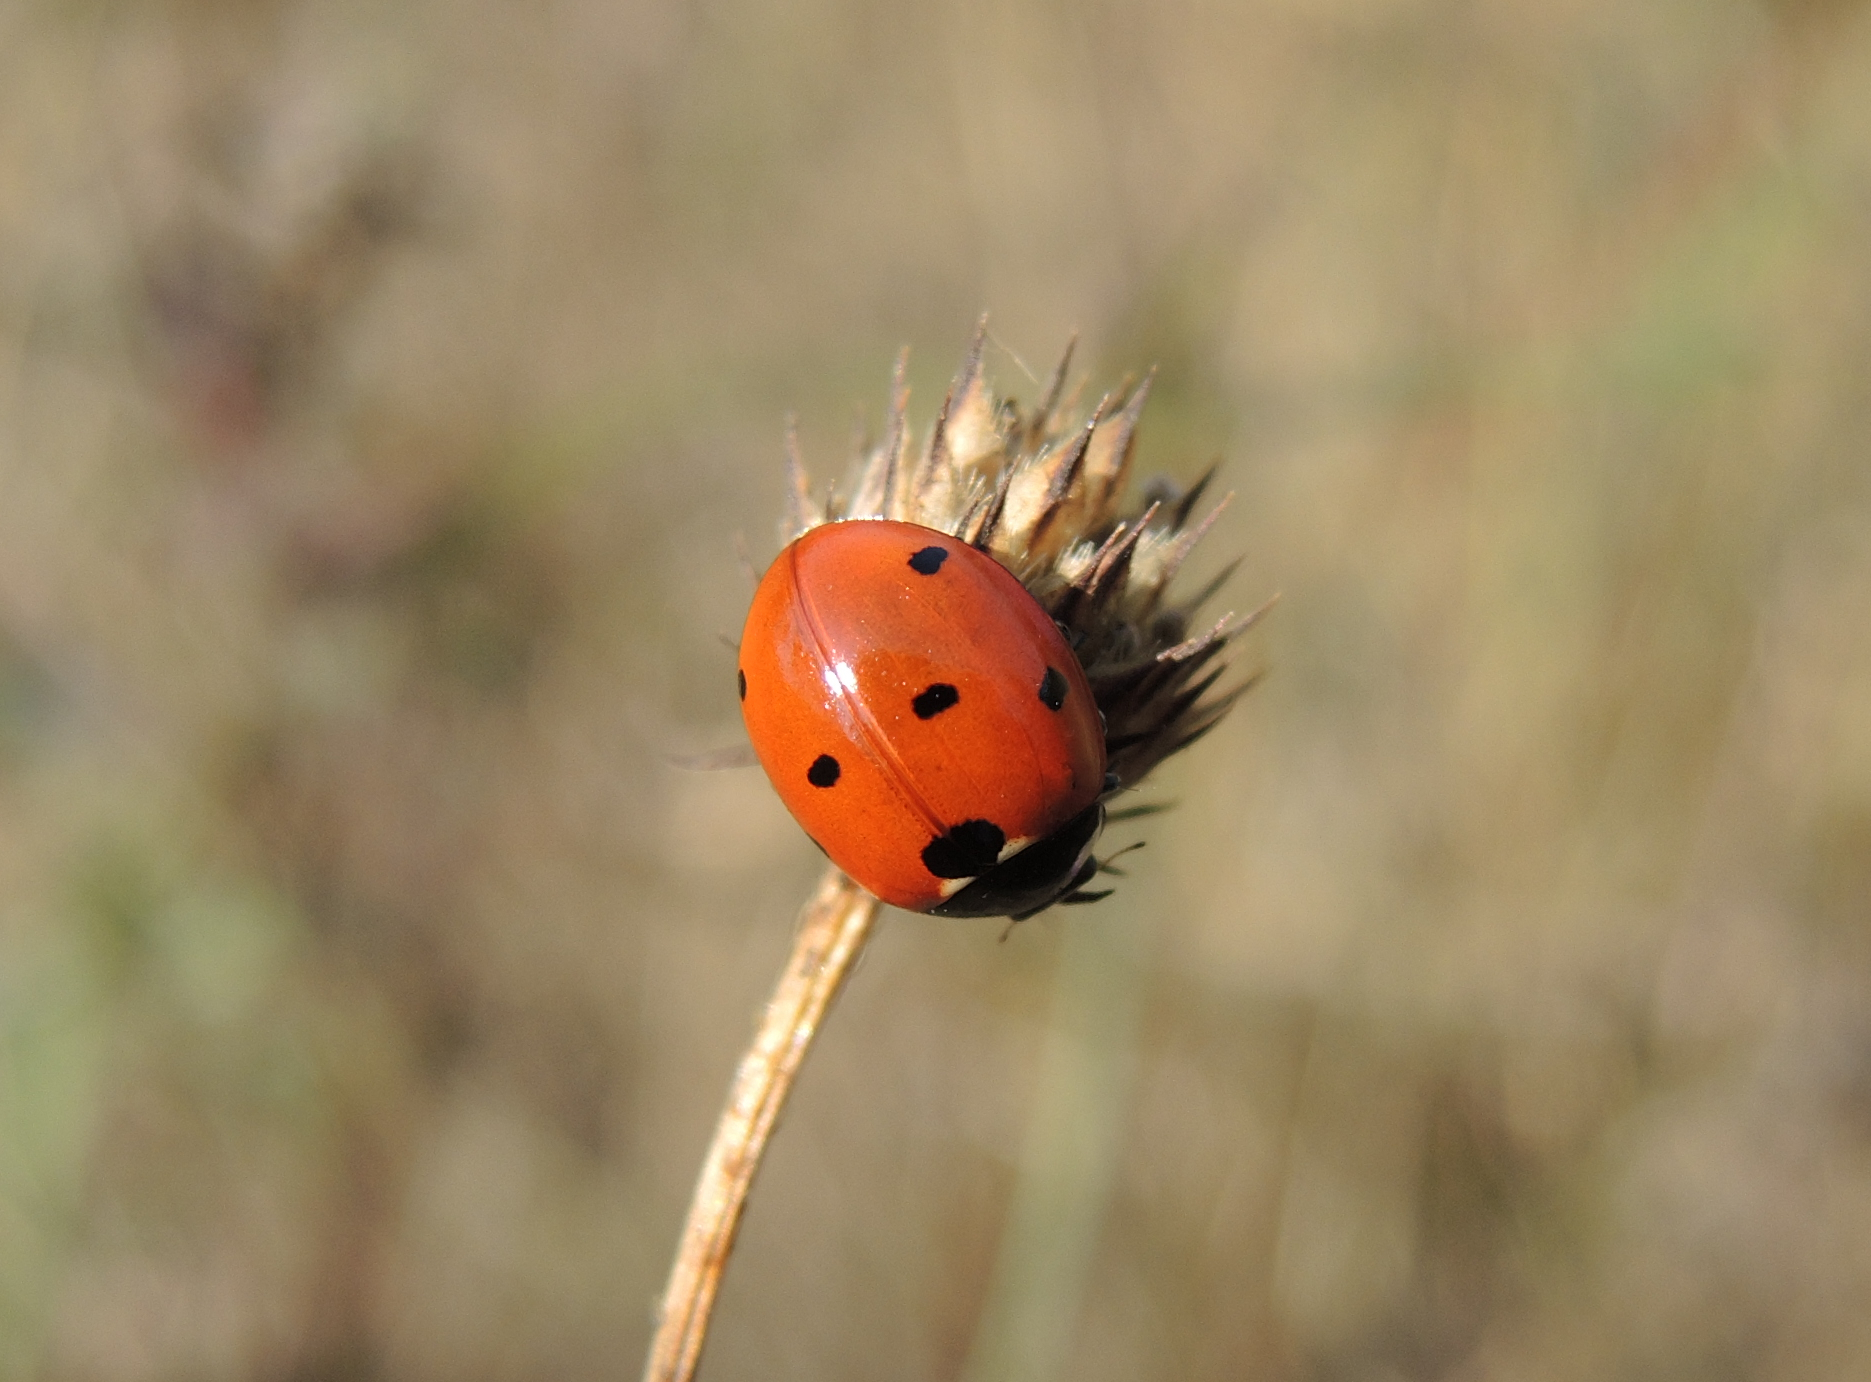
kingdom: Animalia
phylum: Arthropoda
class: Insecta
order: Coleoptera
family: Coccinellidae
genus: Coccinella
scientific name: Coccinella septempunctata
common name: Sevenspotted lady beetle
